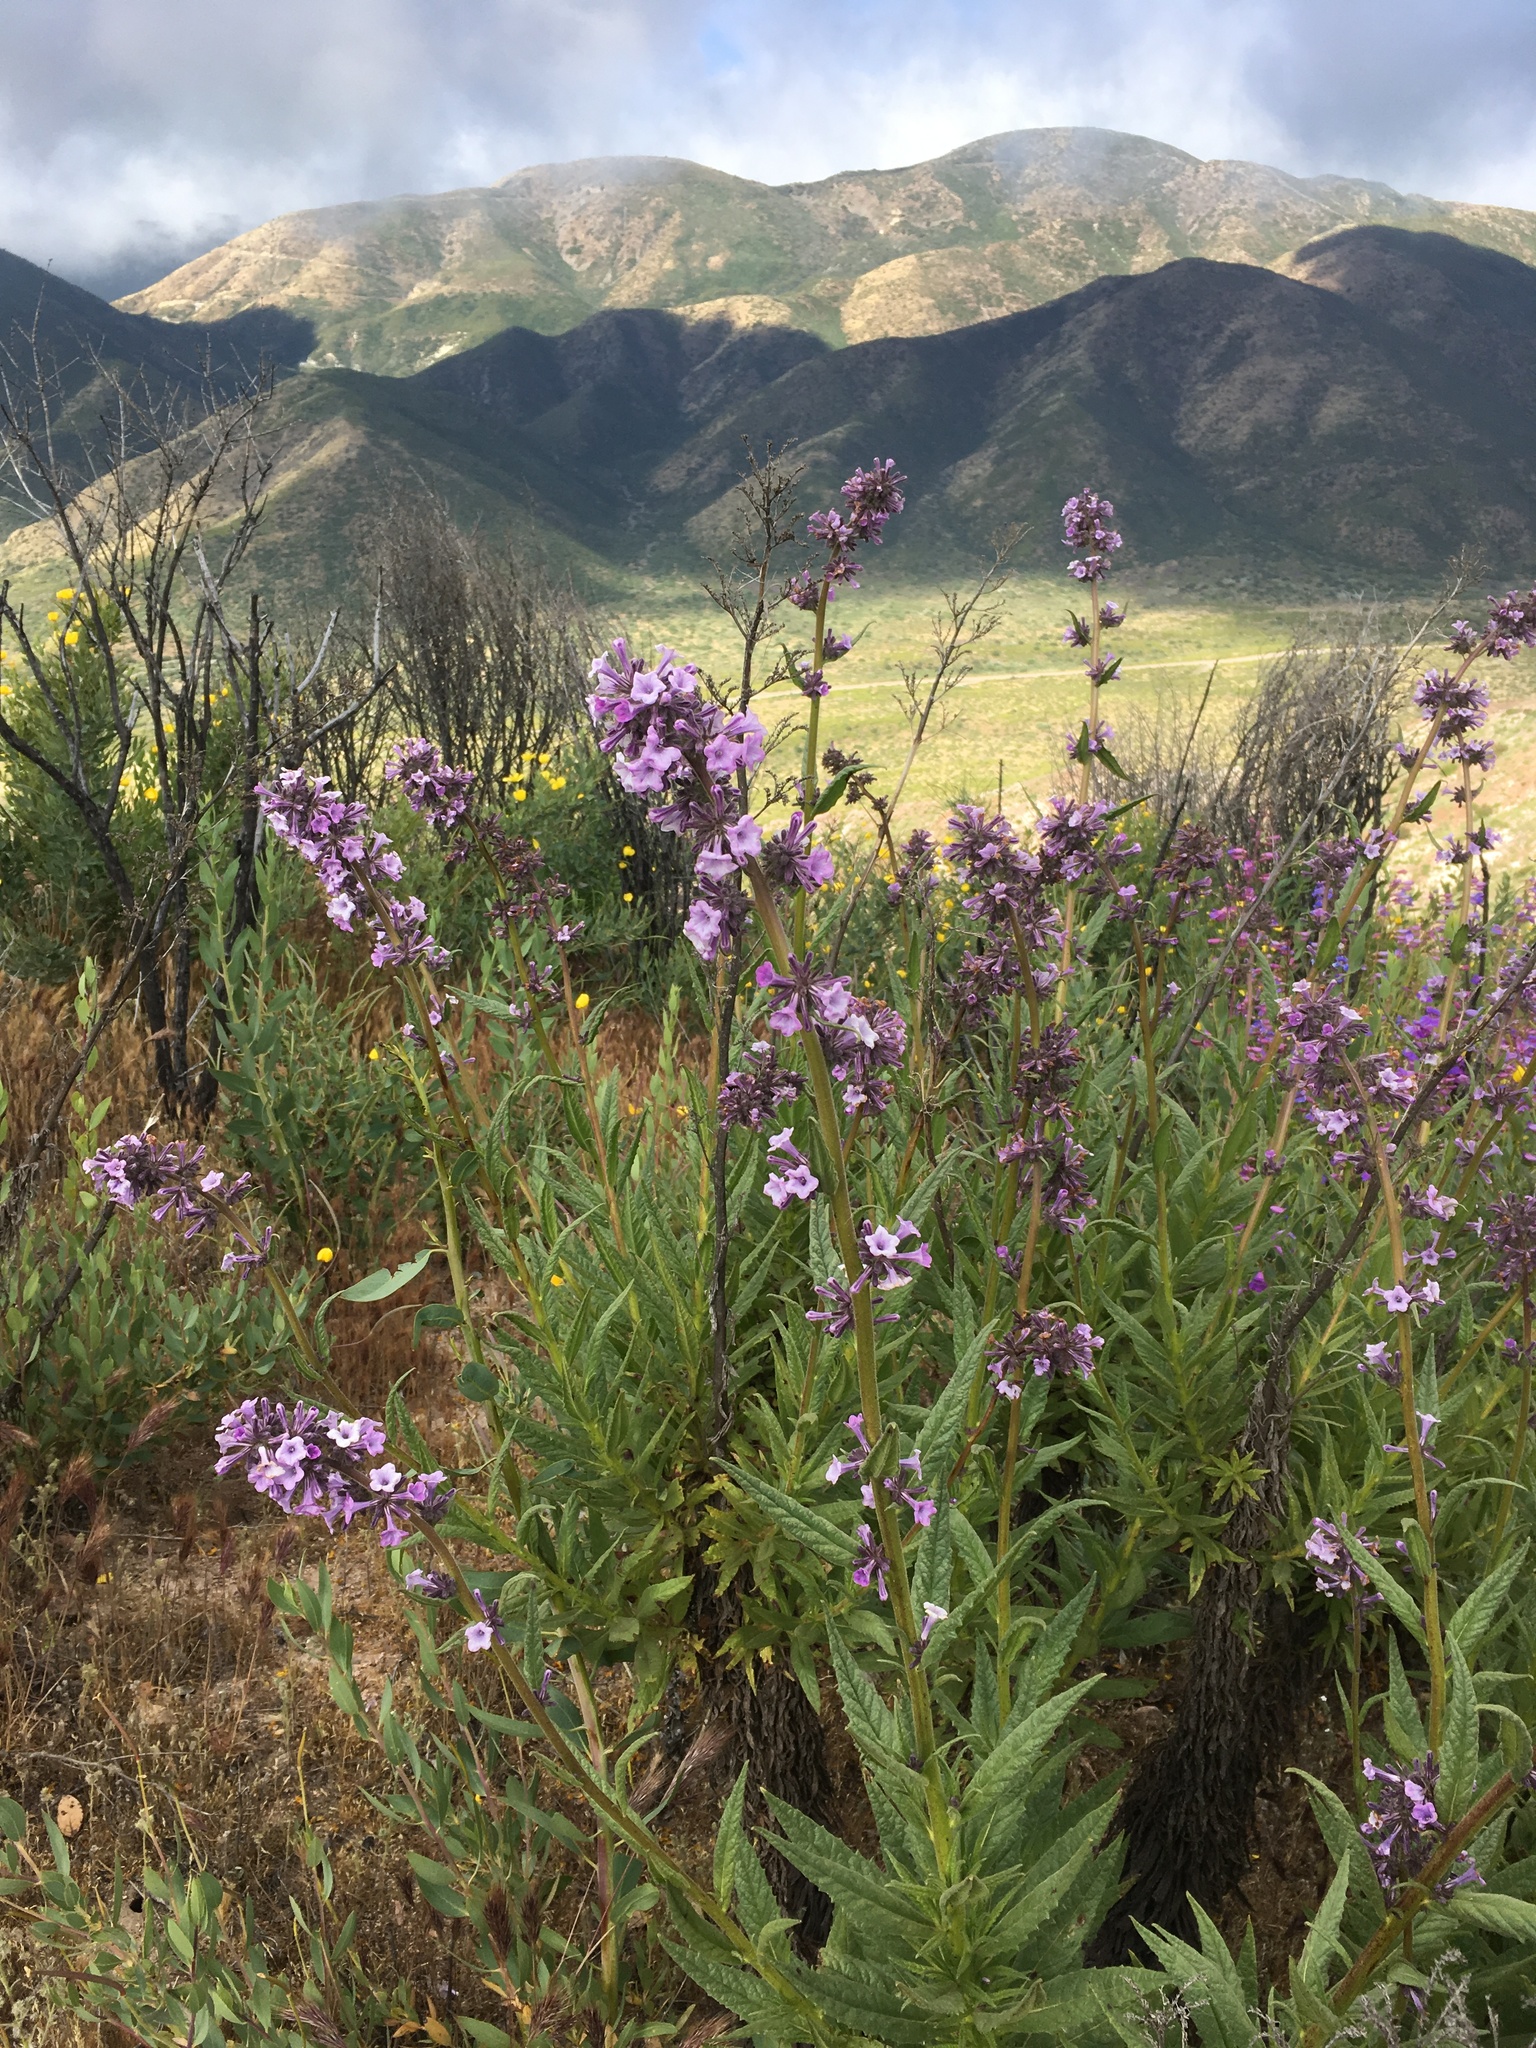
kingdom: Plantae
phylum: Tracheophyta
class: Magnoliopsida
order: Boraginales
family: Namaceae
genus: Turricula
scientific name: Turricula parryi
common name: Poodle-dog-bush
